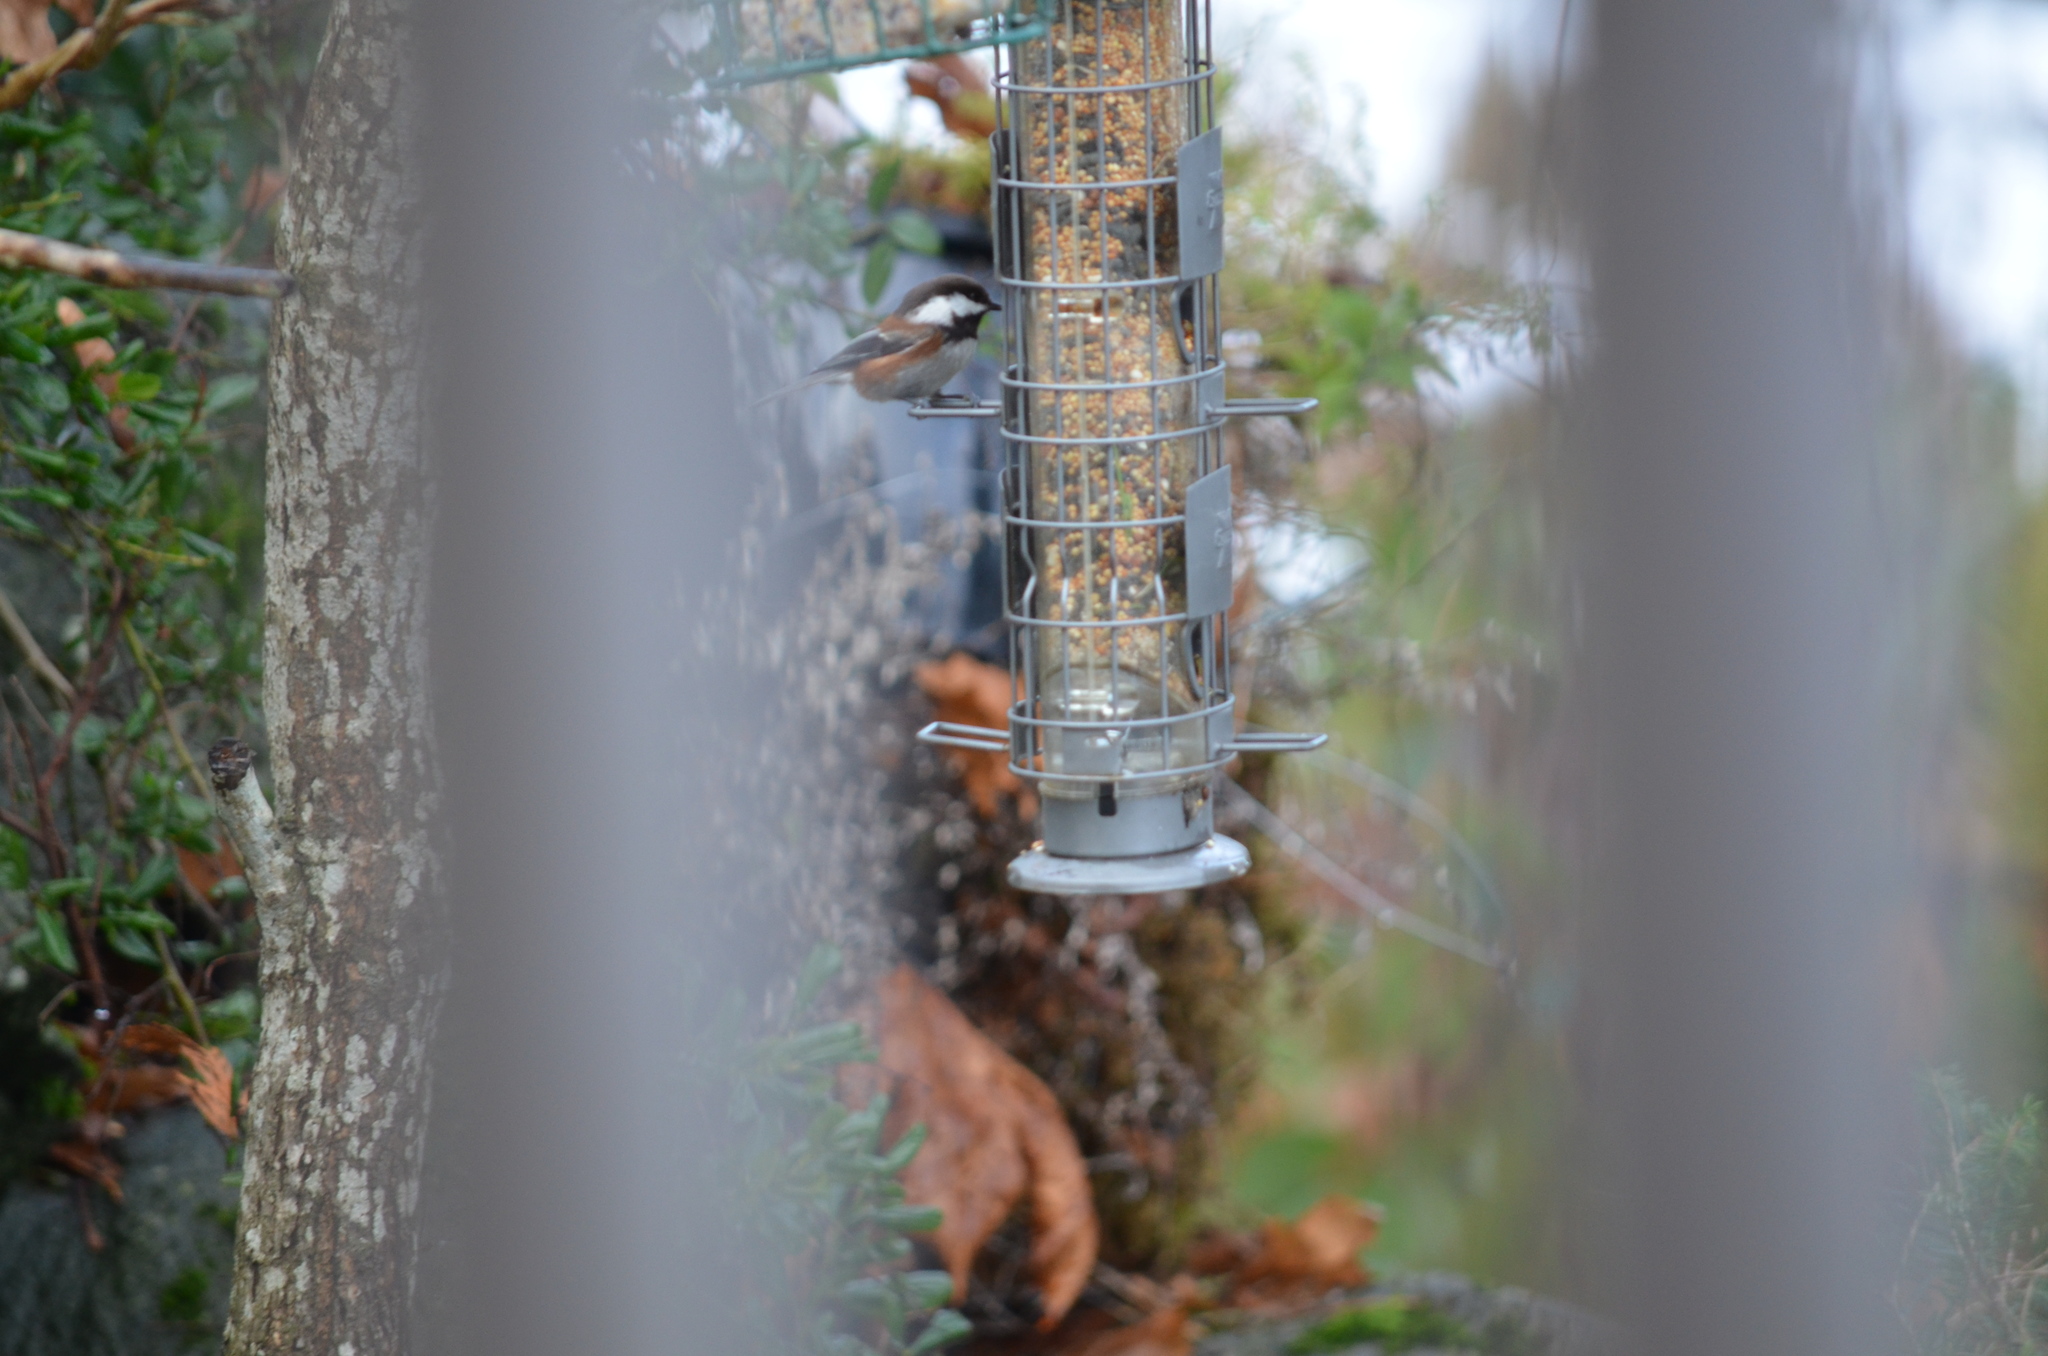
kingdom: Animalia
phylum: Chordata
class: Aves
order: Passeriformes
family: Paridae
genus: Poecile
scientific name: Poecile rufescens
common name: Chestnut-backed chickadee
